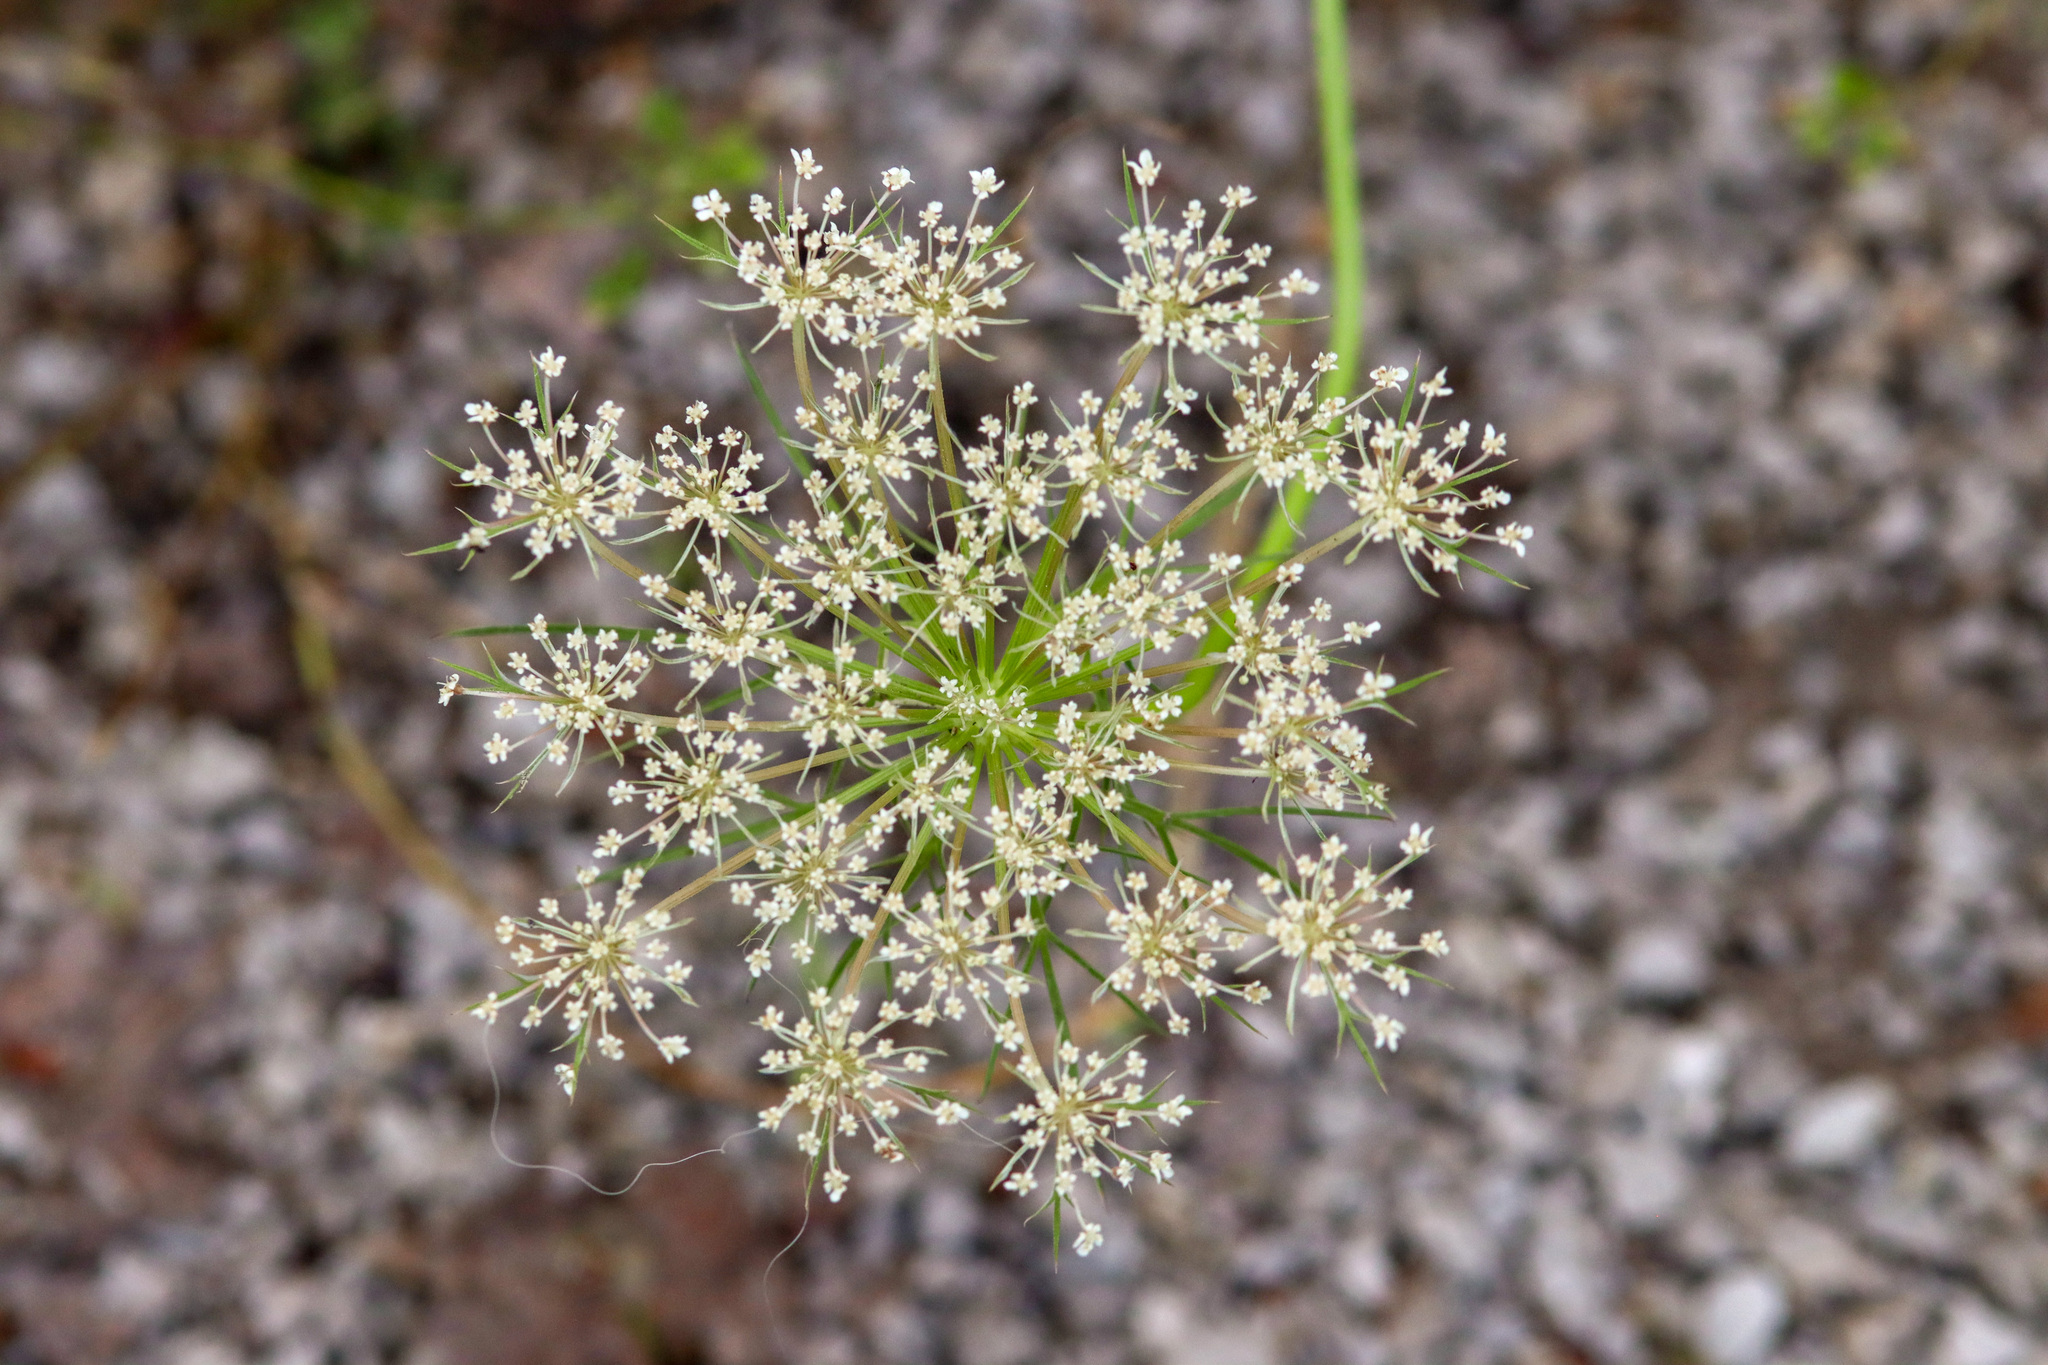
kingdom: Plantae
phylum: Tracheophyta
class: Magnoliopsida
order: Apiales
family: Apiaceae
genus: Daucus
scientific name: Daucus carota
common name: Wild carrot
